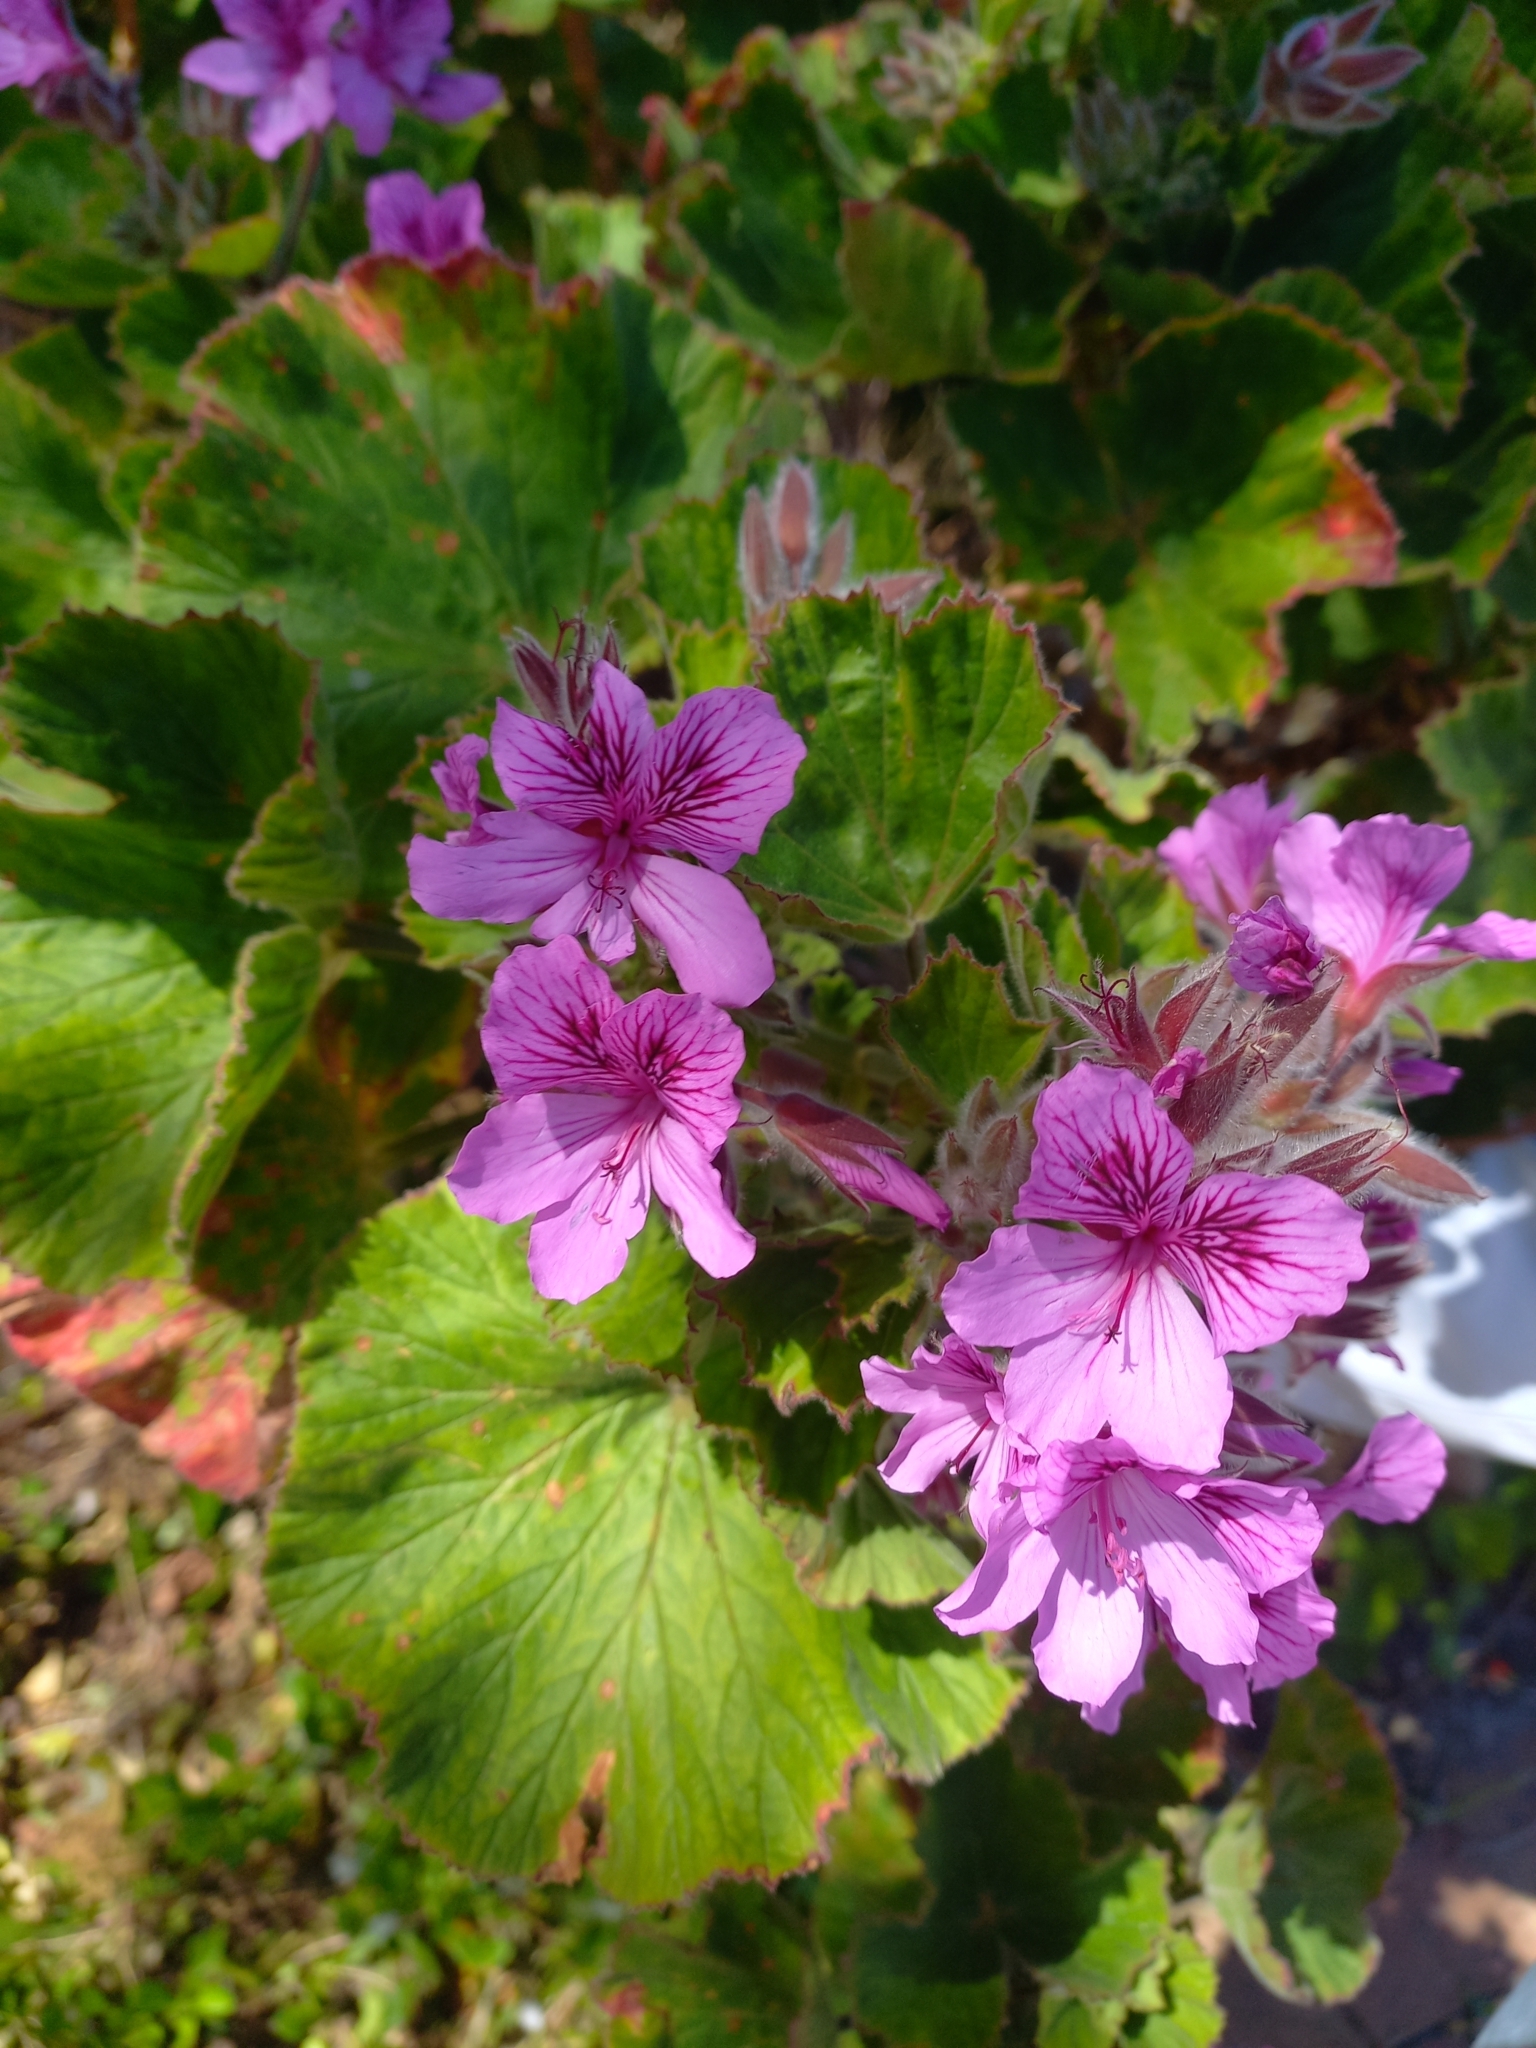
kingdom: Plantae
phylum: Tracheophyta
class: Magnoliopsida
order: Geraniales
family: Geraniaceae
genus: Pelargonium
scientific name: Pelargonium cucullatum
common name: Tree pelargonium
